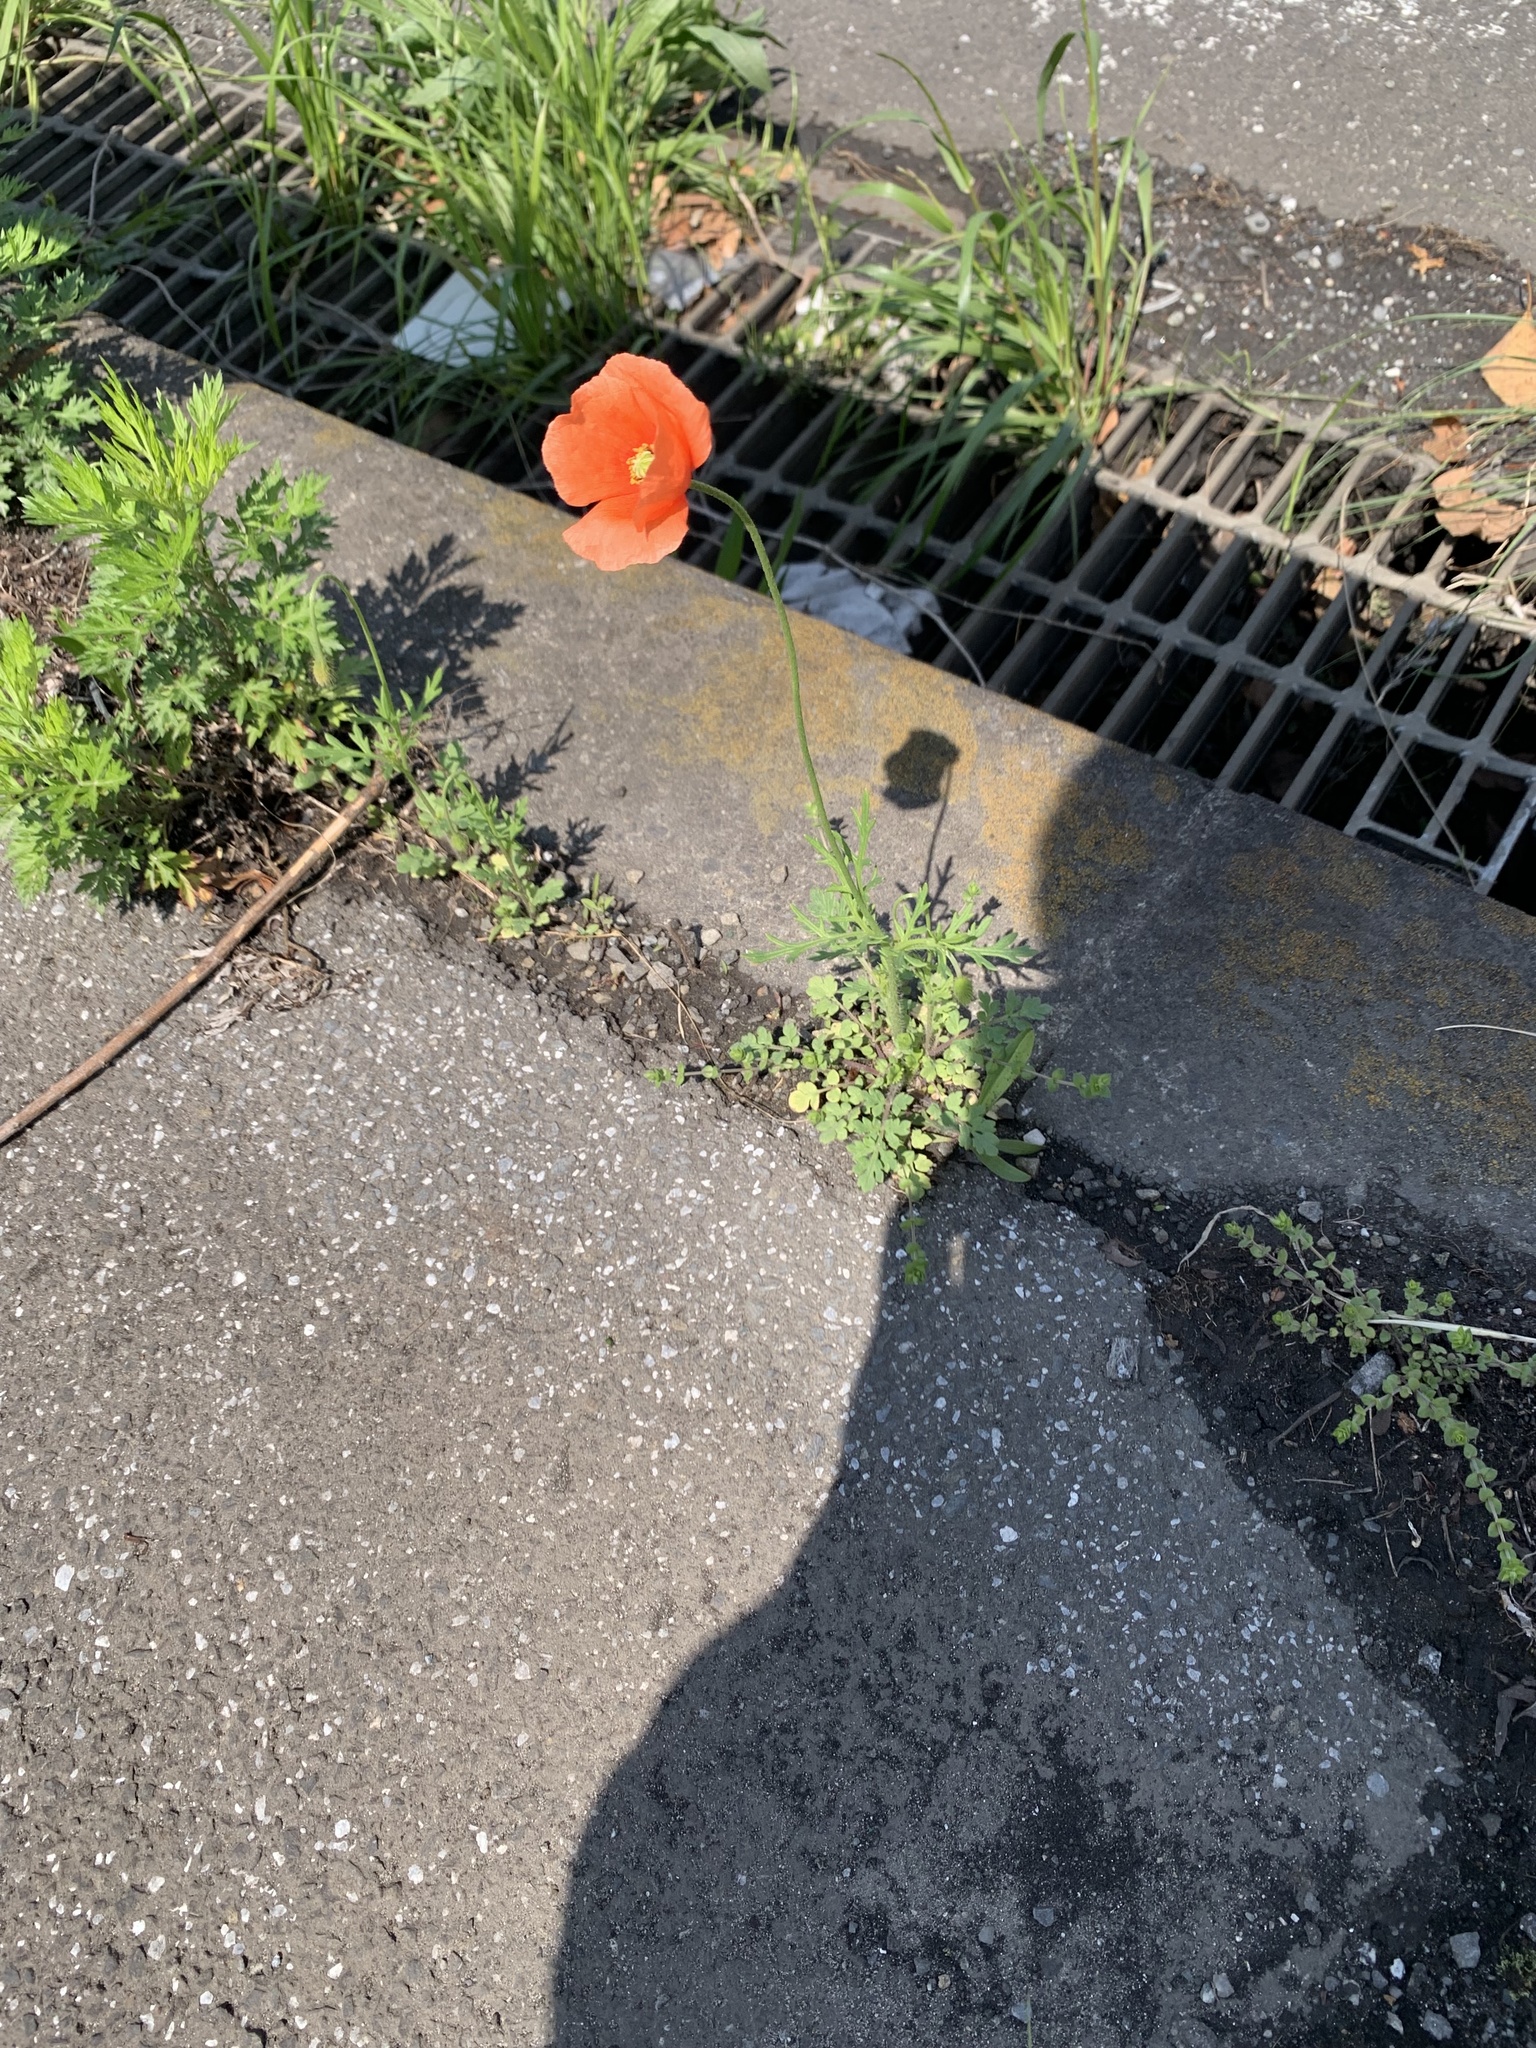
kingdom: Plantae
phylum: Tracheophyta
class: Magnoliopsida
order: Ranunculales
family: Papaveraceae
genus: Papaver
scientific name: Papaver dubium
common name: Long-headed poppy
